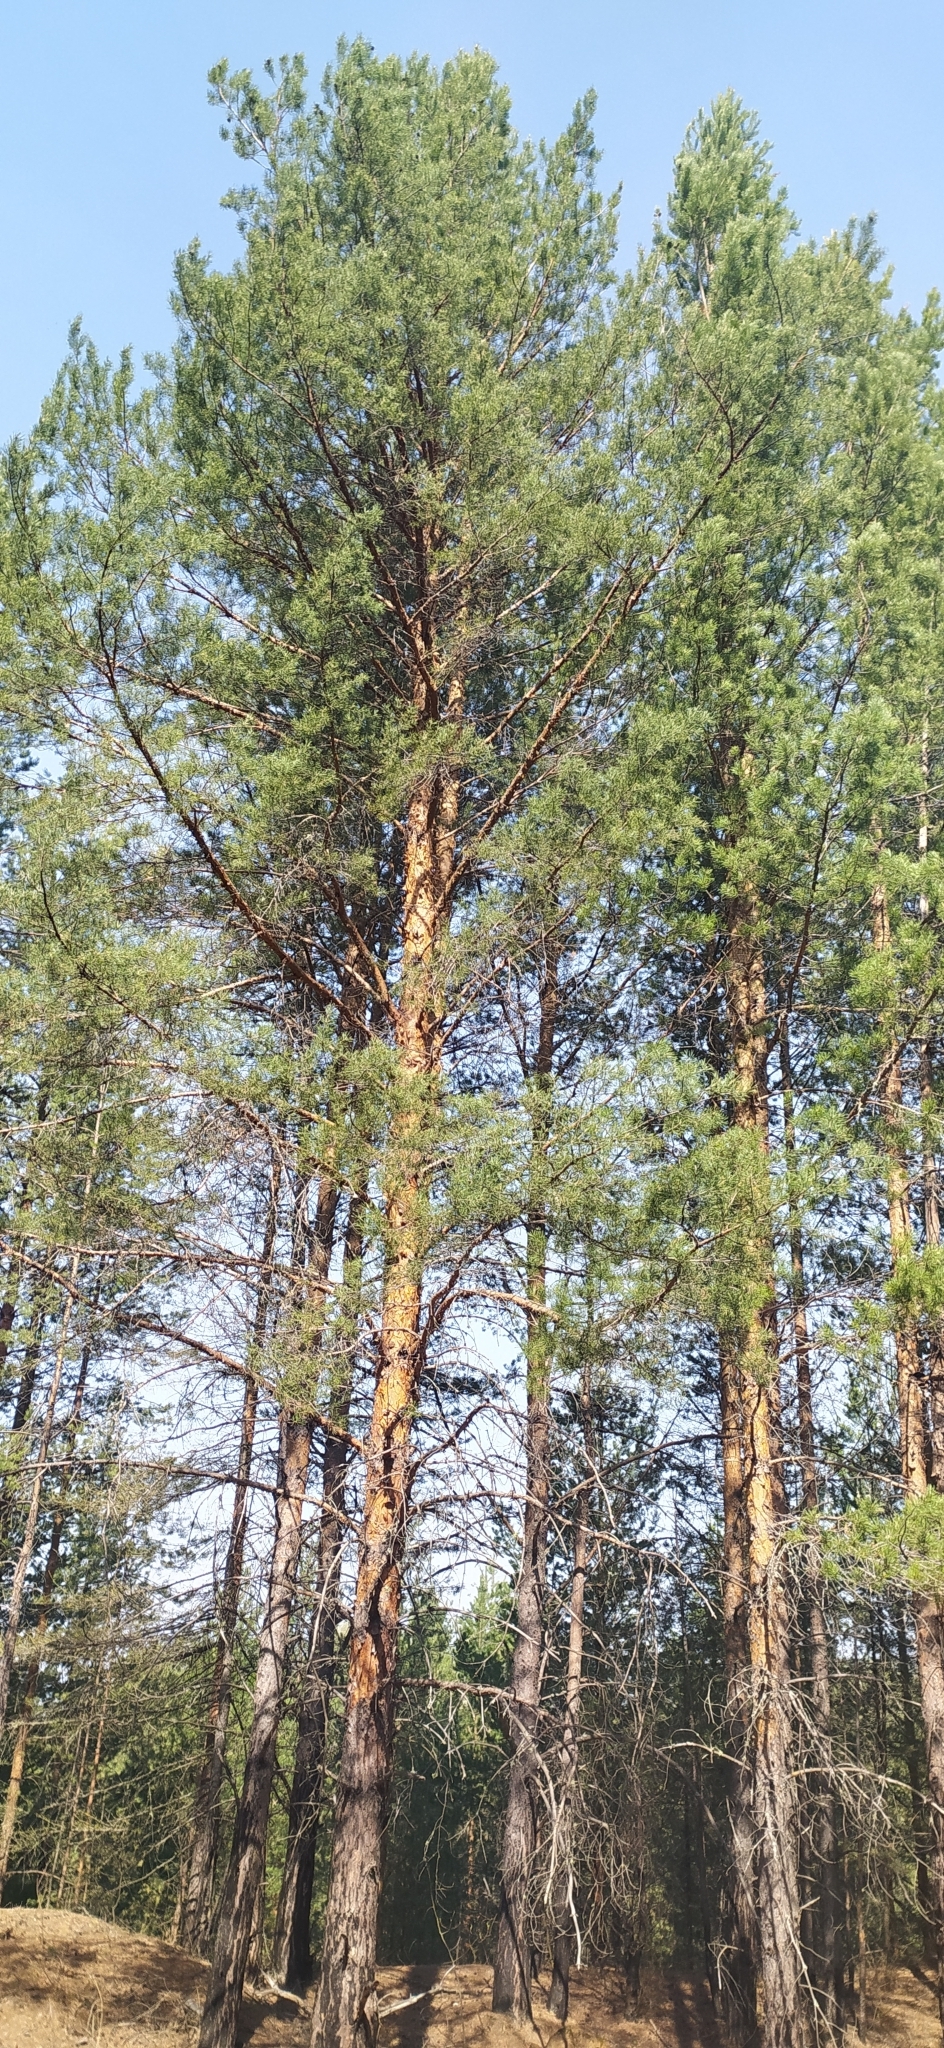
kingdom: Plantae
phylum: Tracheophyta
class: Pinopsida
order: Pinales
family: Pinaceae
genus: Pinus
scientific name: Pinus sylvestris
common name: Scots pine
